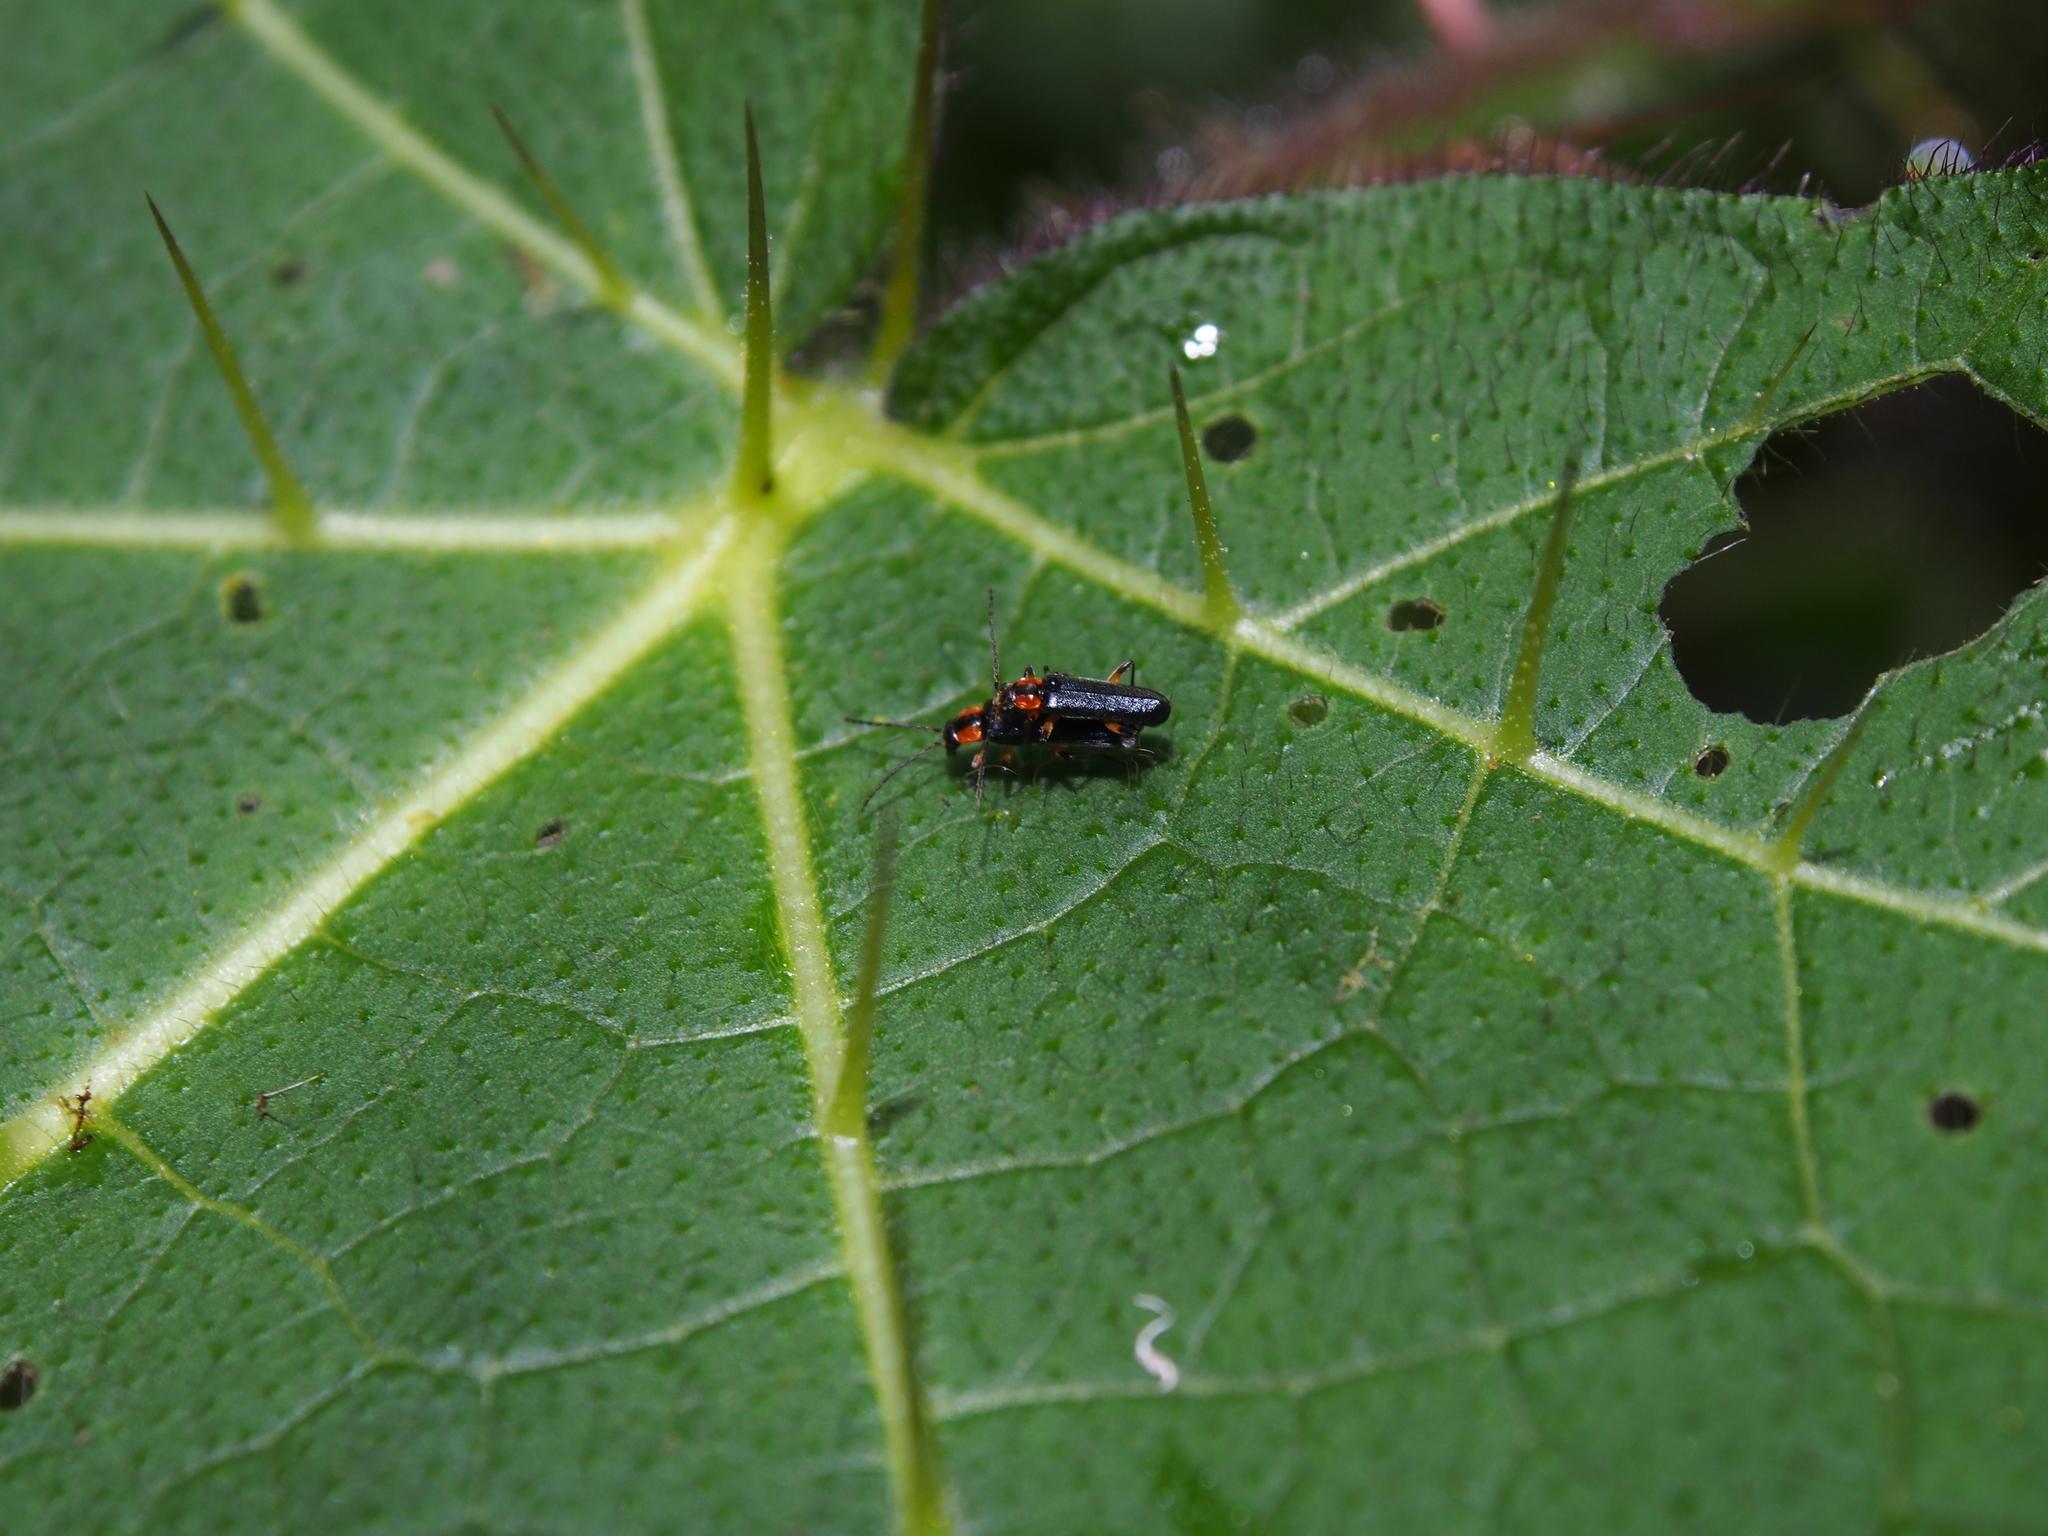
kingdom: Plantae
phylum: Tracheophyta
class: Magnoliopsida
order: Solanales
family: Solanaceae
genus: Solanum
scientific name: Solanum acerifolium
